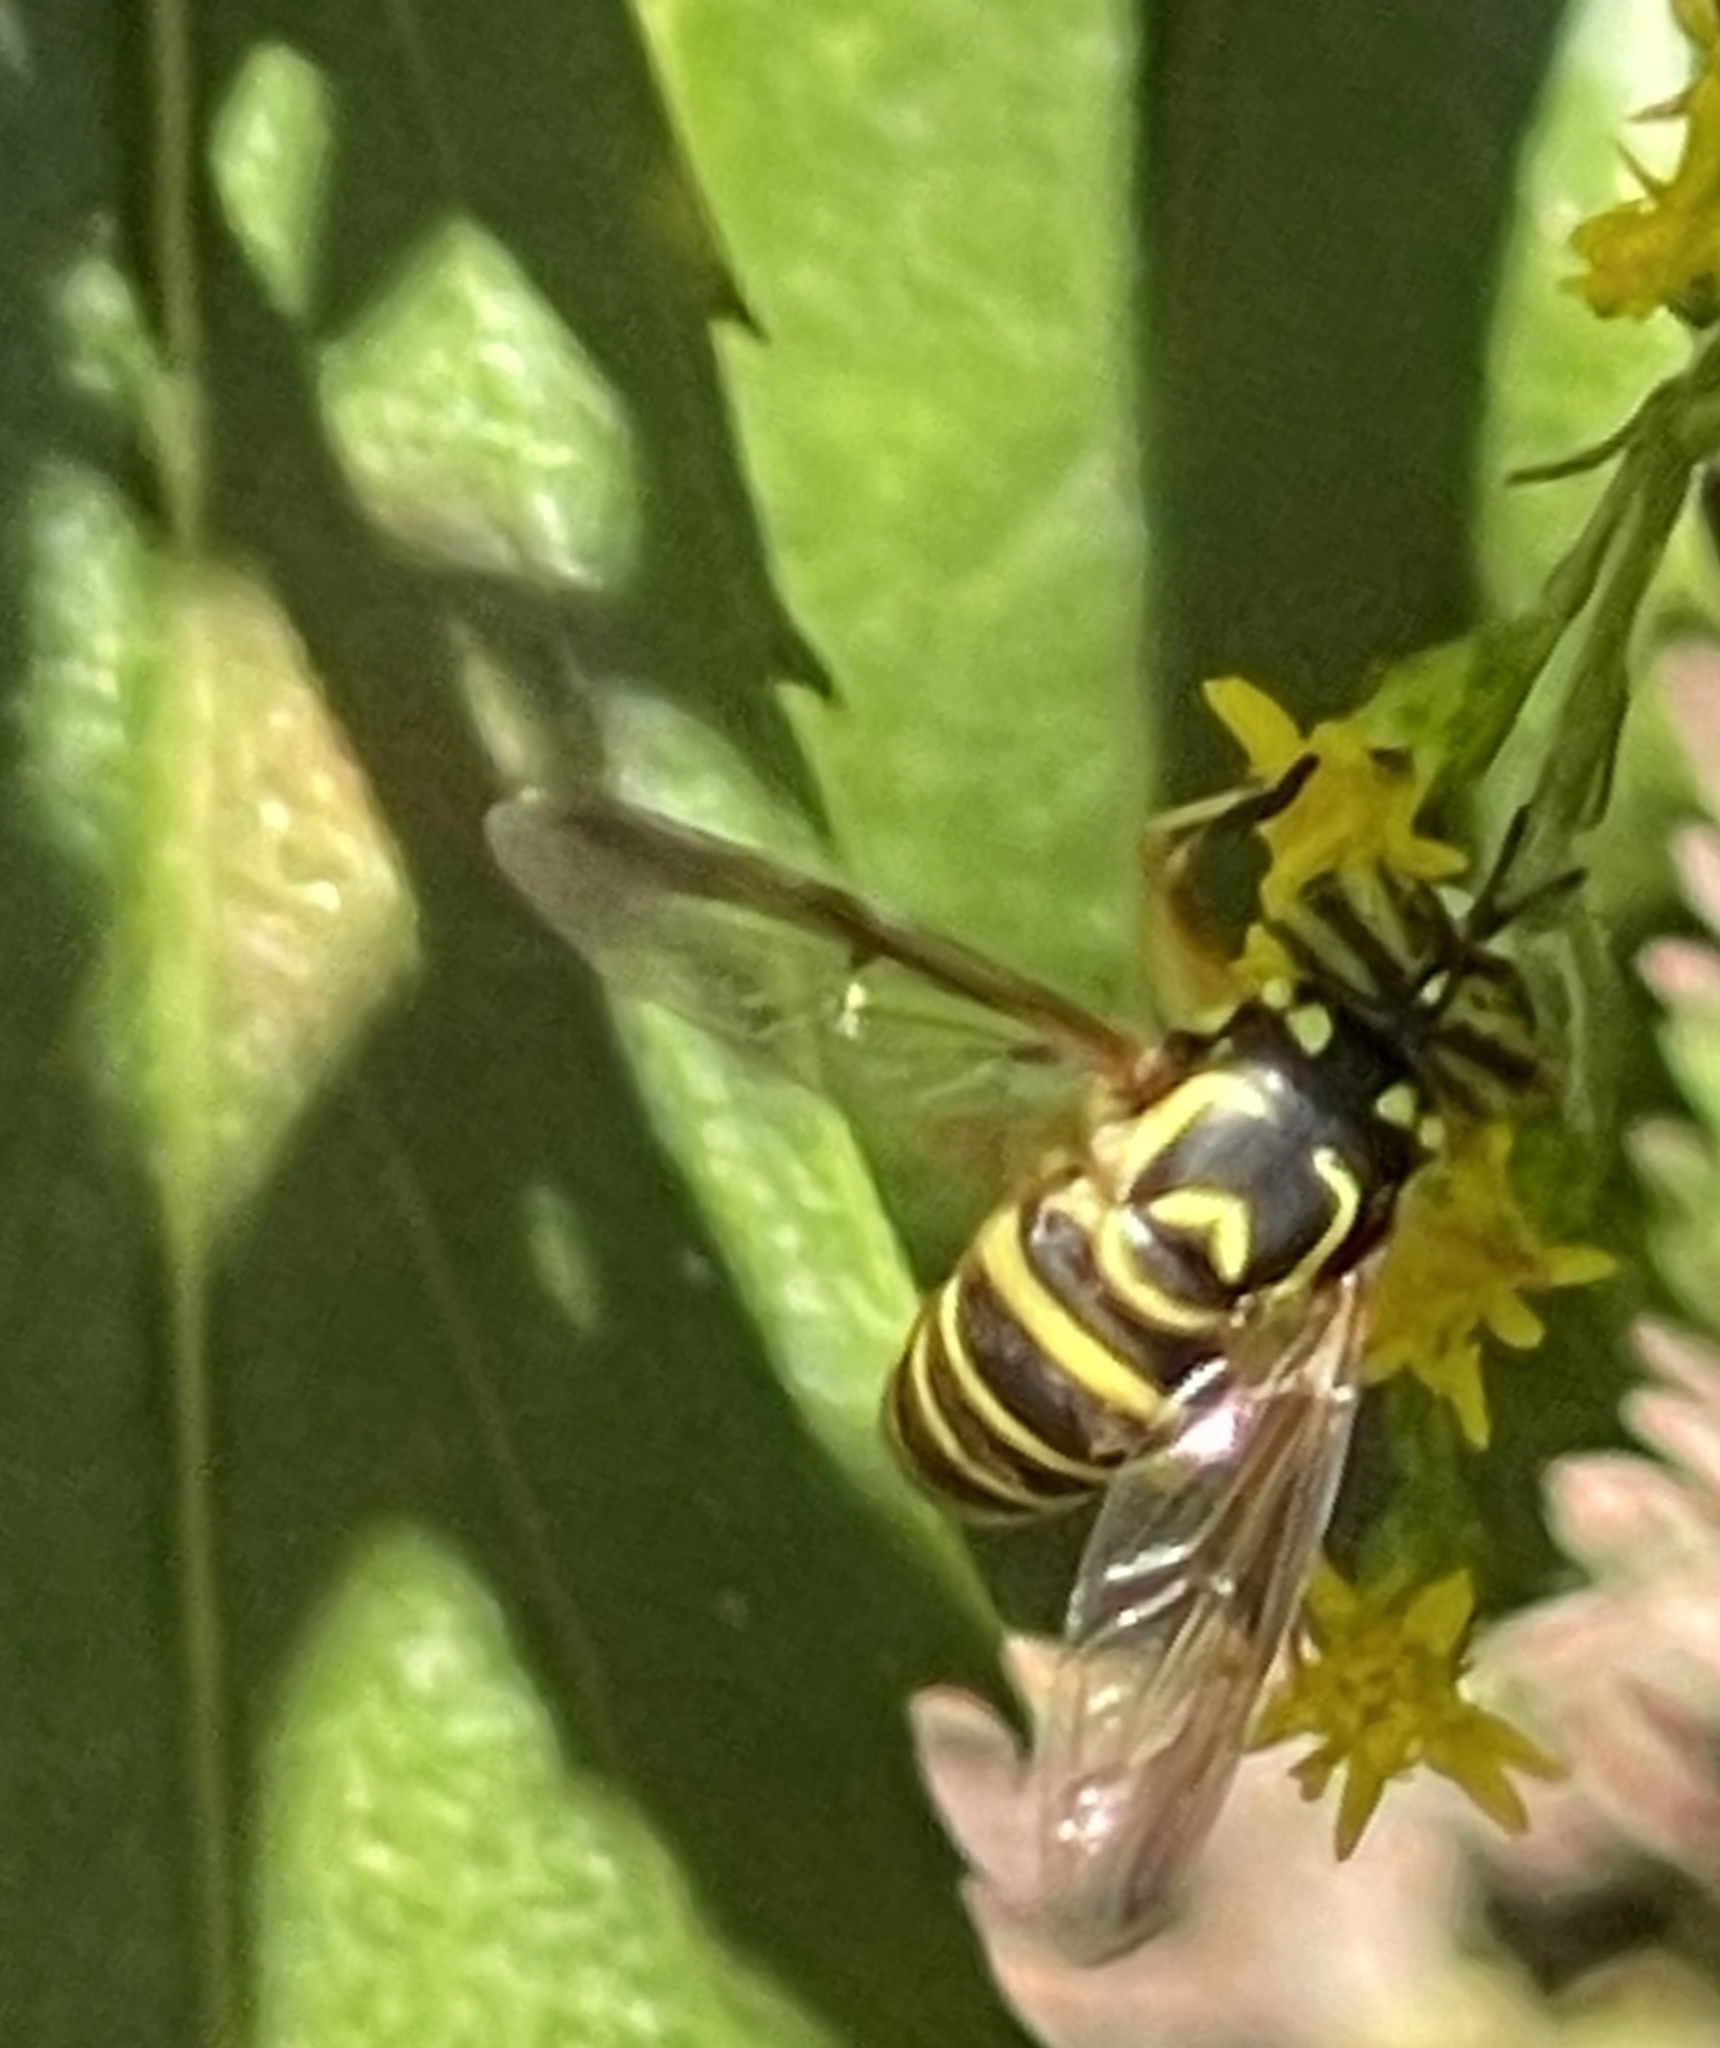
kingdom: Animalia
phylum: Arthropoda
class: Insecta
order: Diptera
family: Syrphidae
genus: Spilomyia
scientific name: Spilomyia longicornis
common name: Eastern hornet fly
